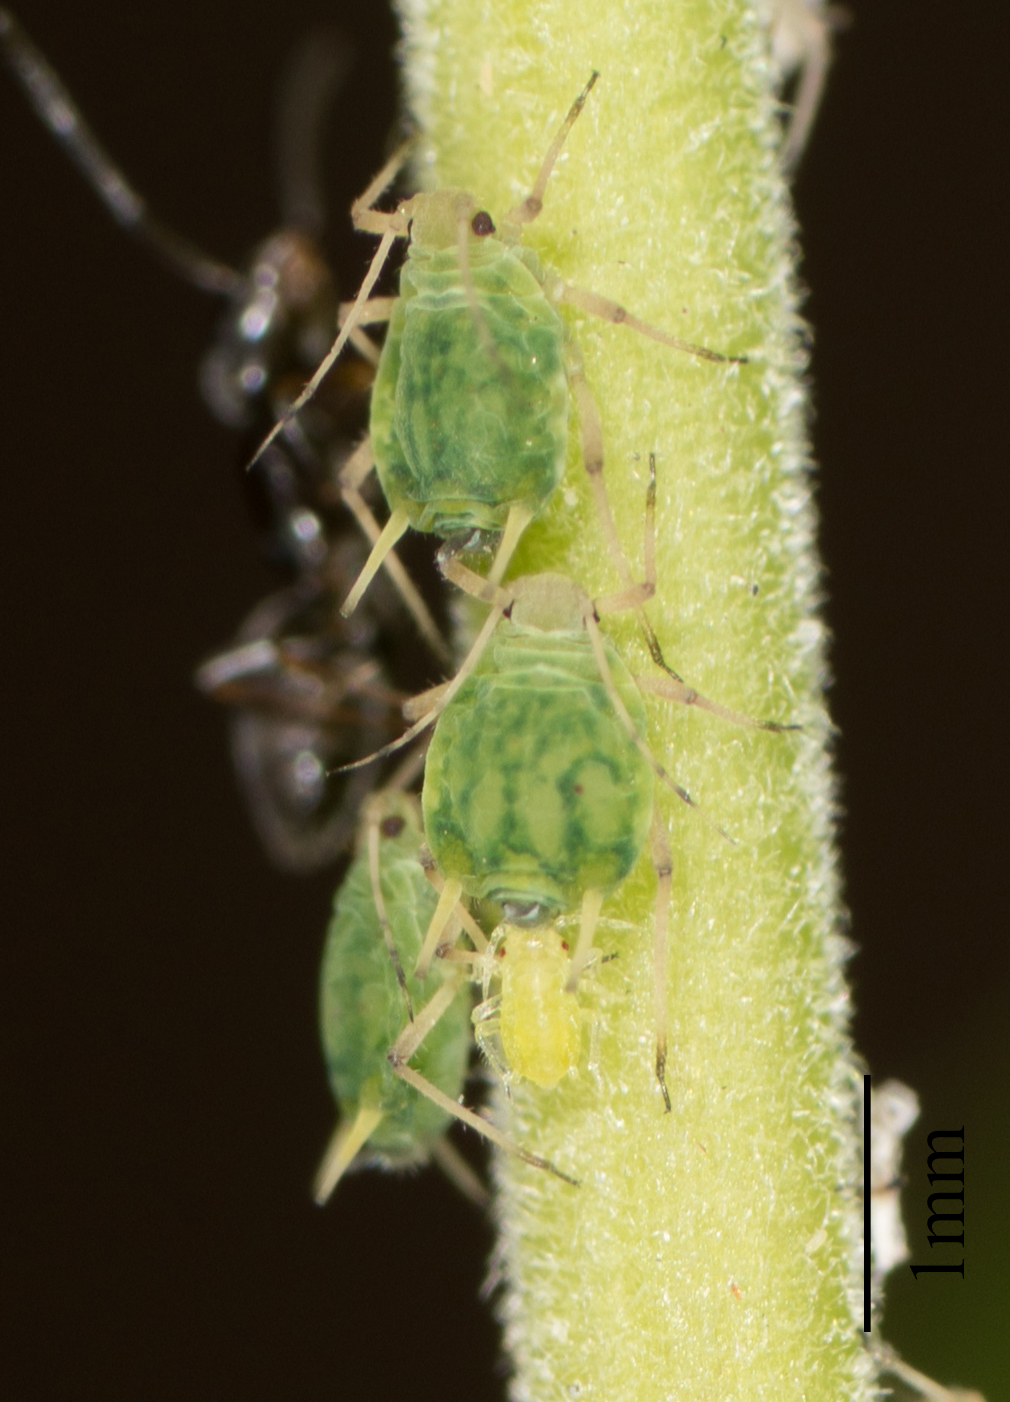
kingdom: Animalia
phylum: Arthropoda
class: Insecta
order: Hemiptera
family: Aphididae
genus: Aphis
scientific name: Aphis farinosa
